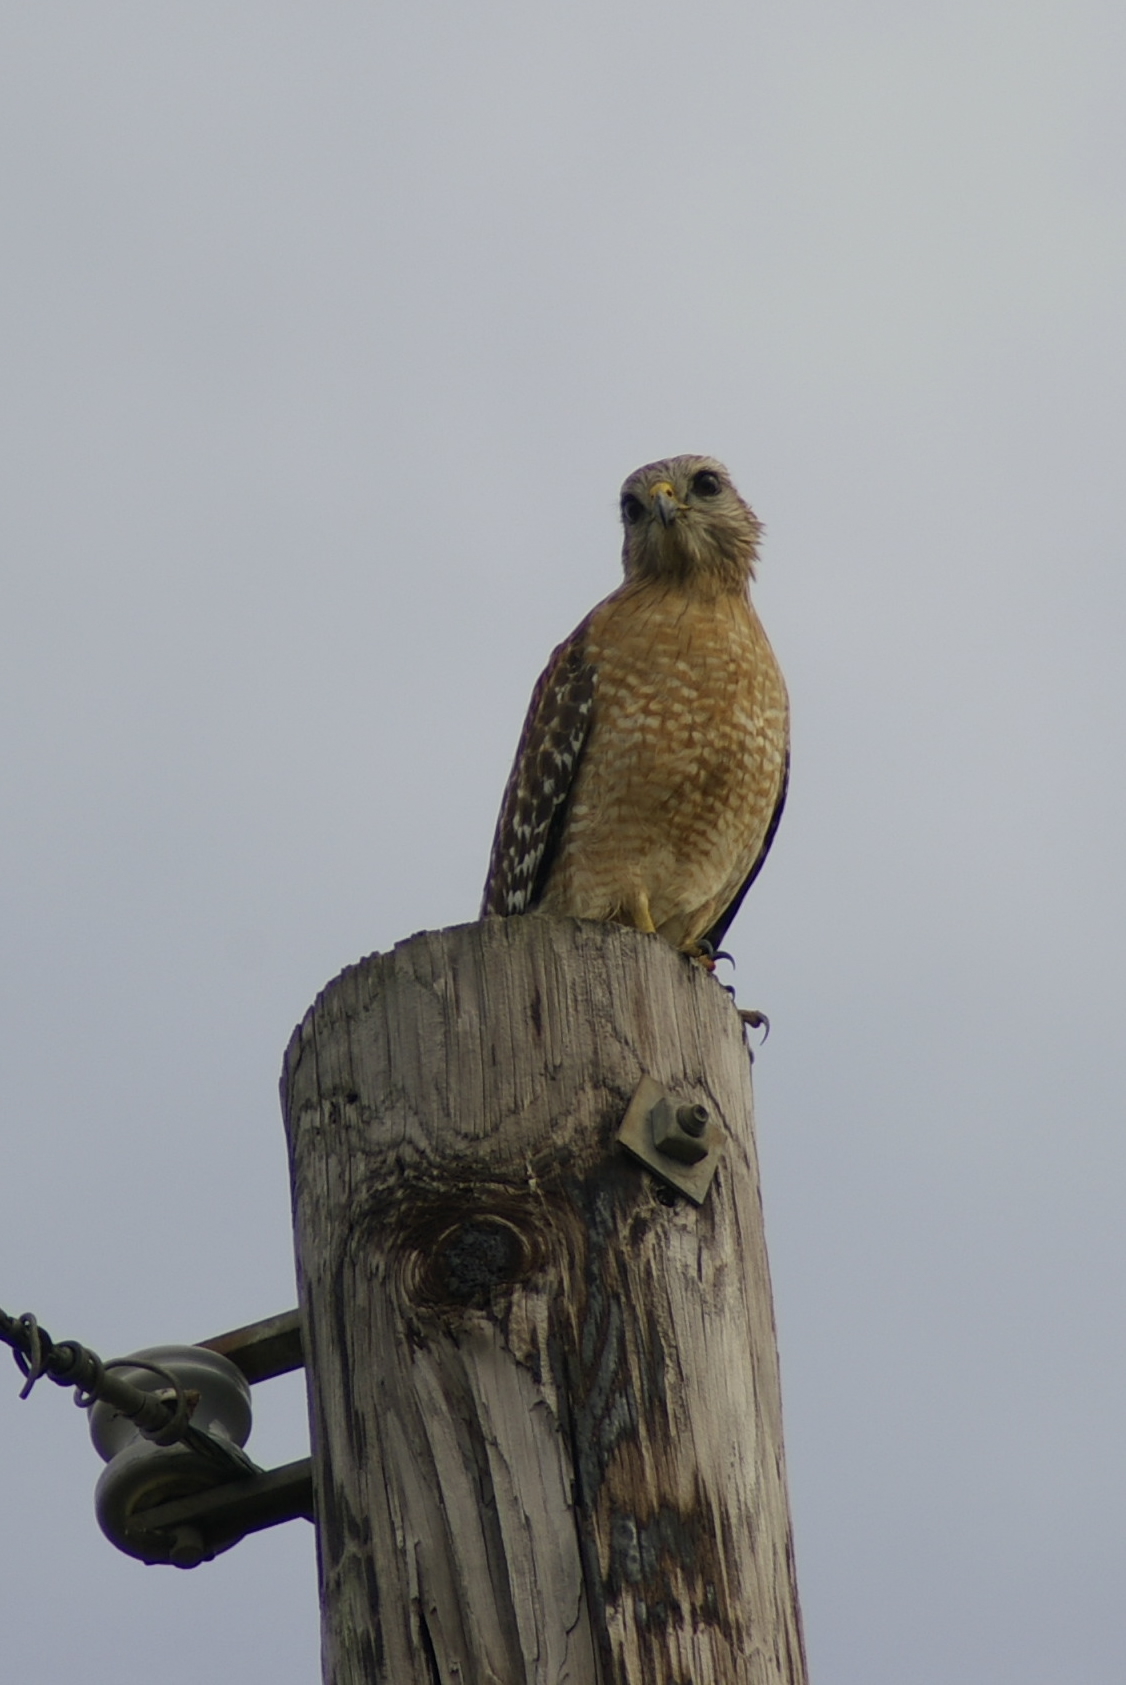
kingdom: Animalia
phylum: Chordata
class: Aves
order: Accipitriformes
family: Accipitridae
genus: Buteo
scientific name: Buteo lineatus
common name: Red-shouldered hawk
